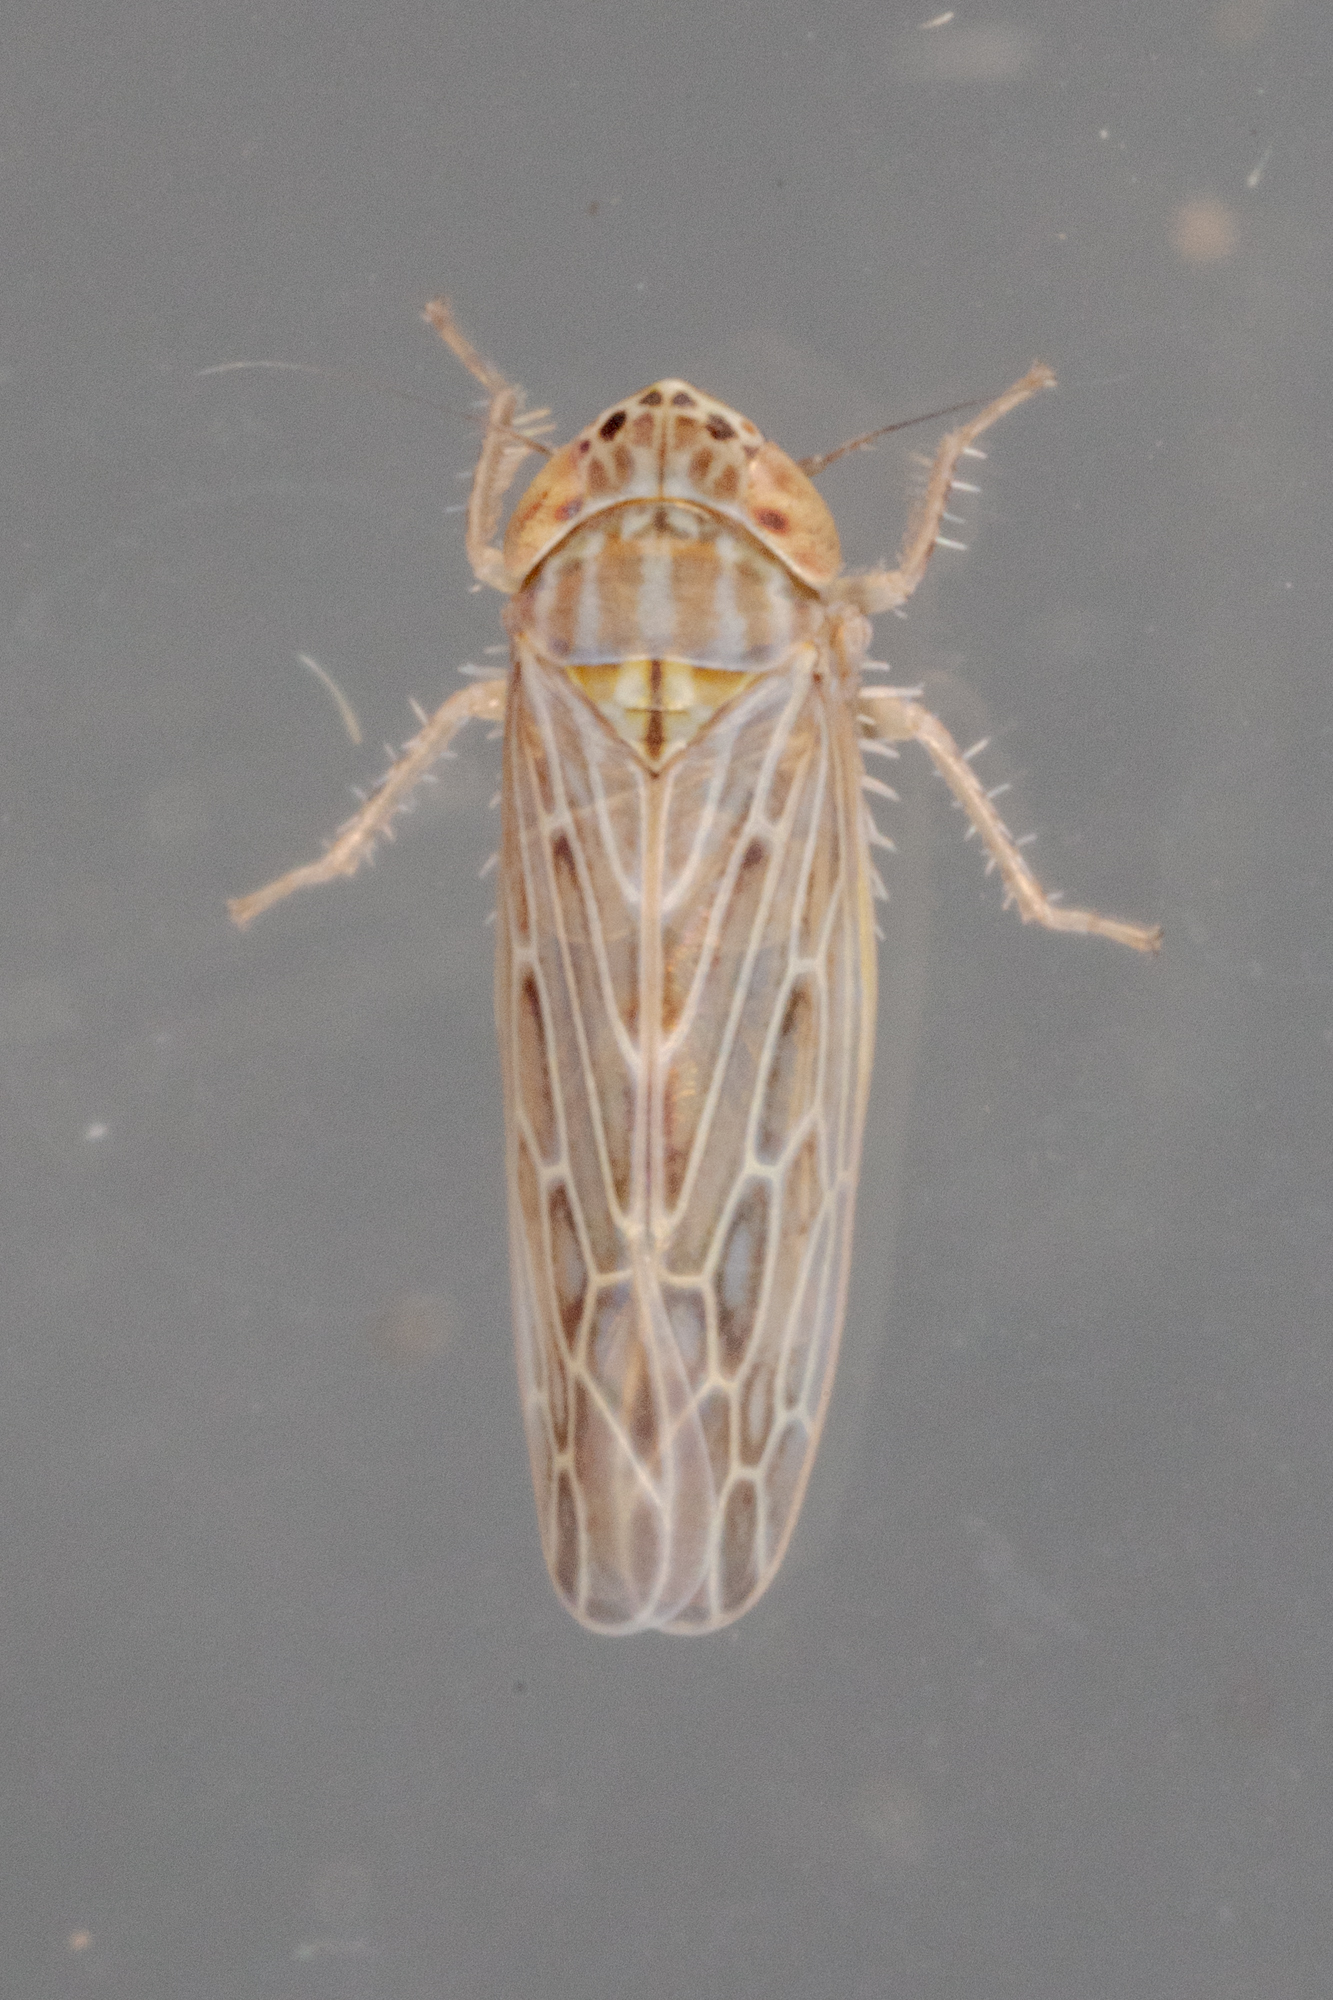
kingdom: Animalia
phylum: Arthropoda
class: Insecta
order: Hemiptera
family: Cicadellidae
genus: Graminella
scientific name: Graminella sonora
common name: Lesser lawn leafhopper
